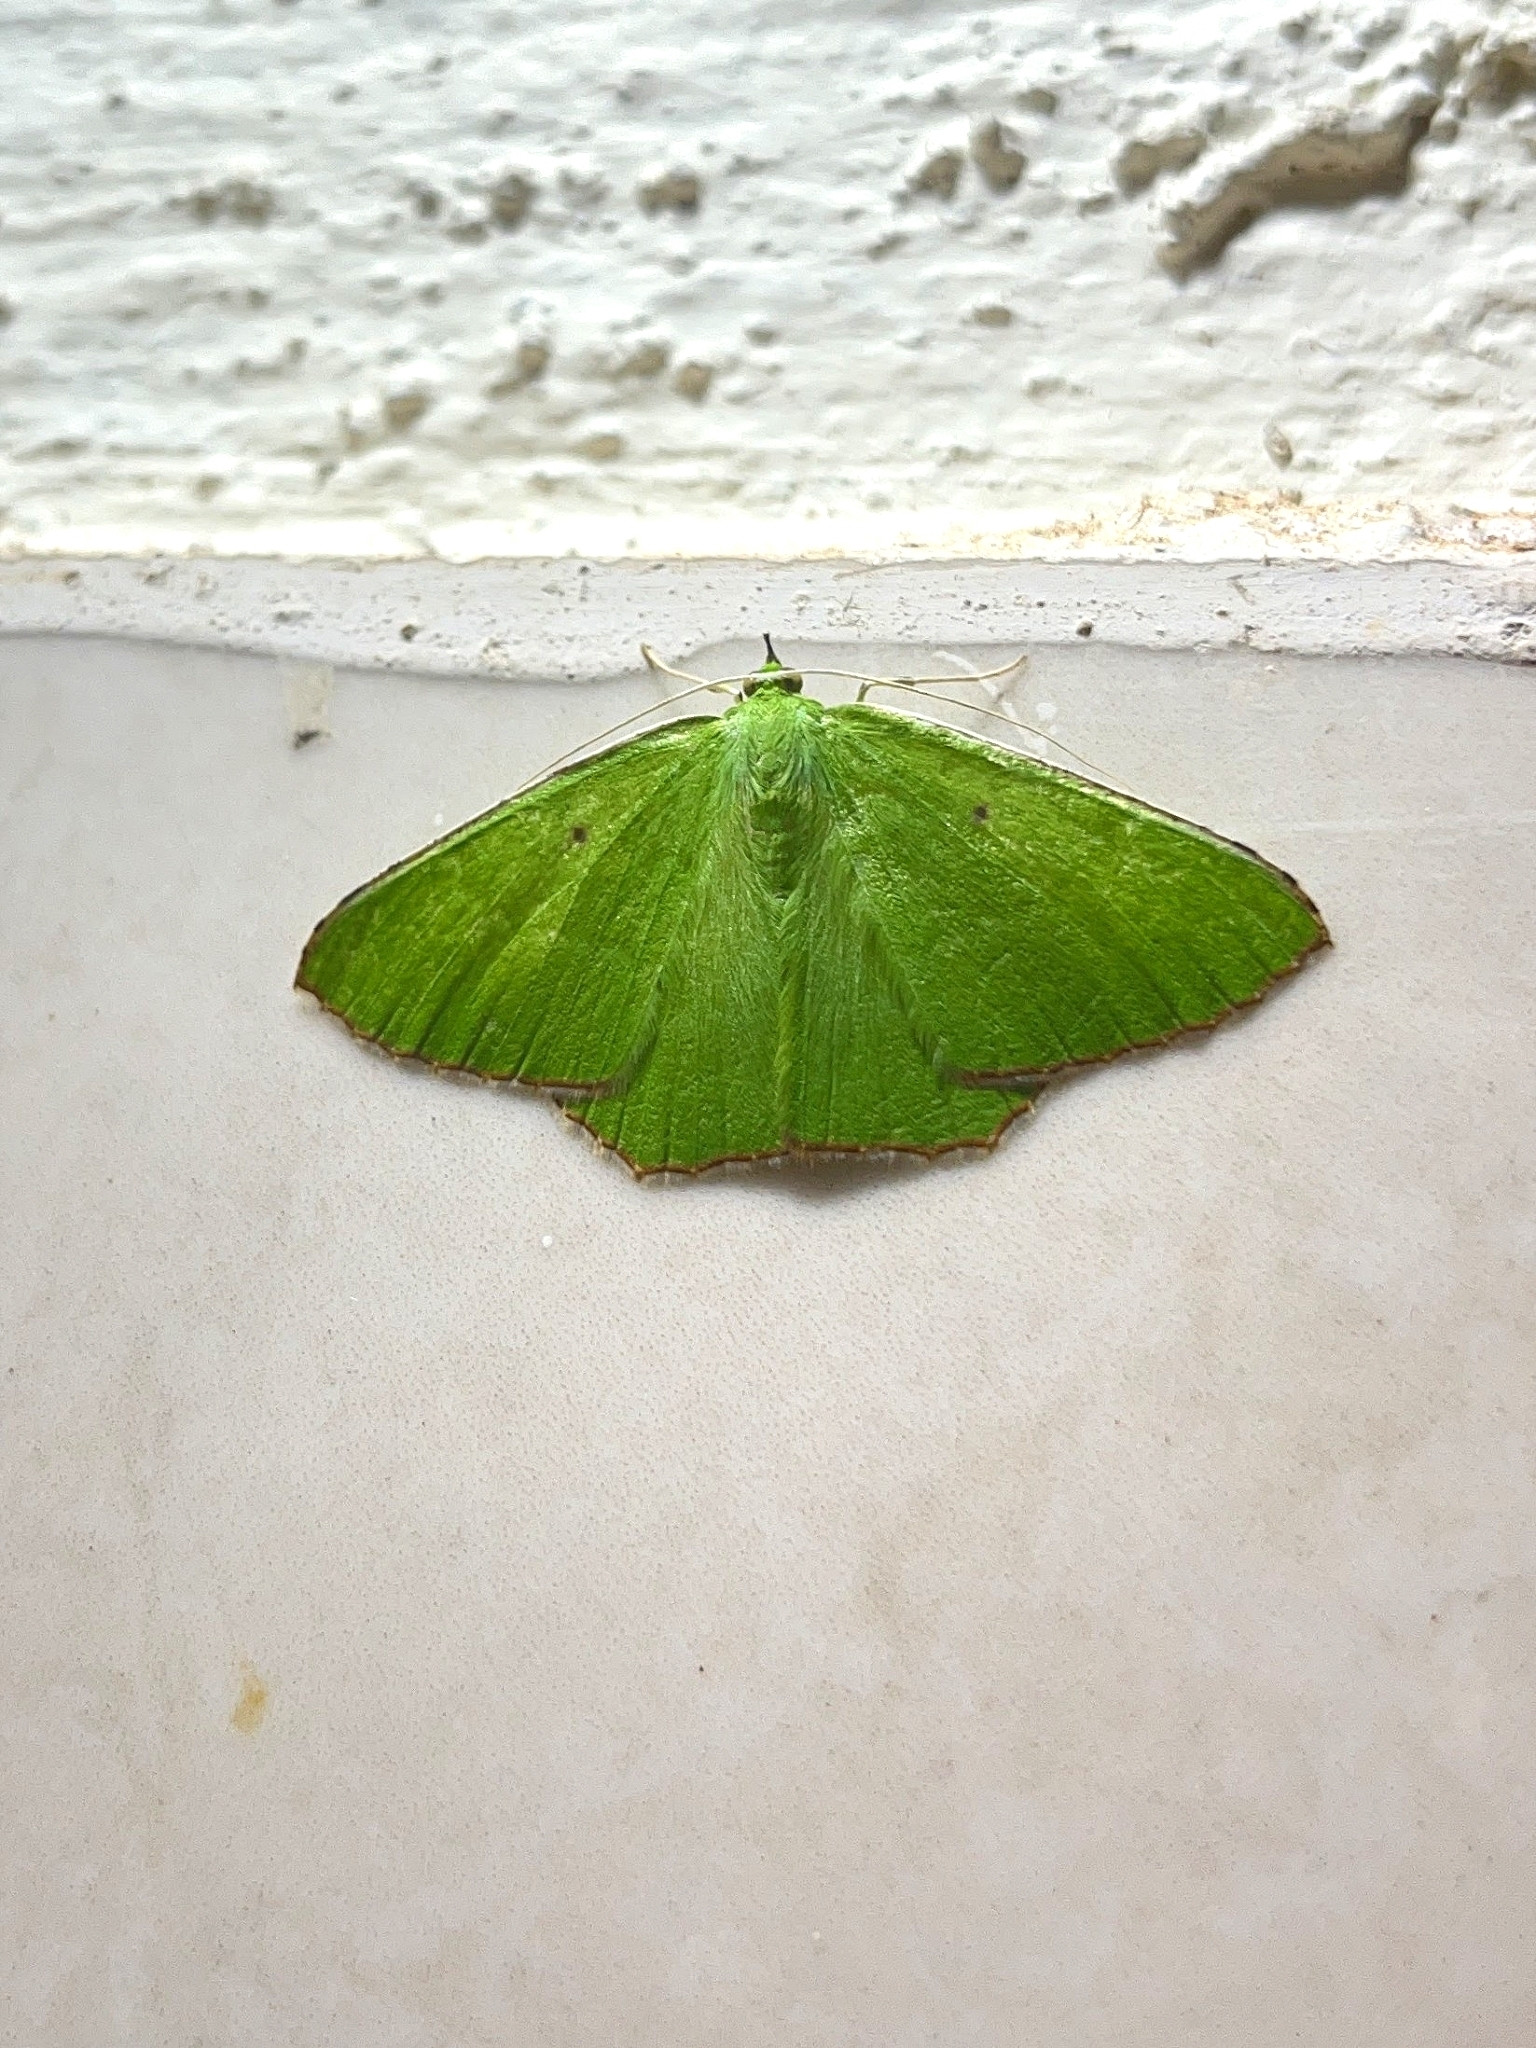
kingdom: Animalia
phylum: Arthropoda
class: Insecta
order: Lepidoptera
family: Geometridae
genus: Ornithospila
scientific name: Ornithospila submonstrans
